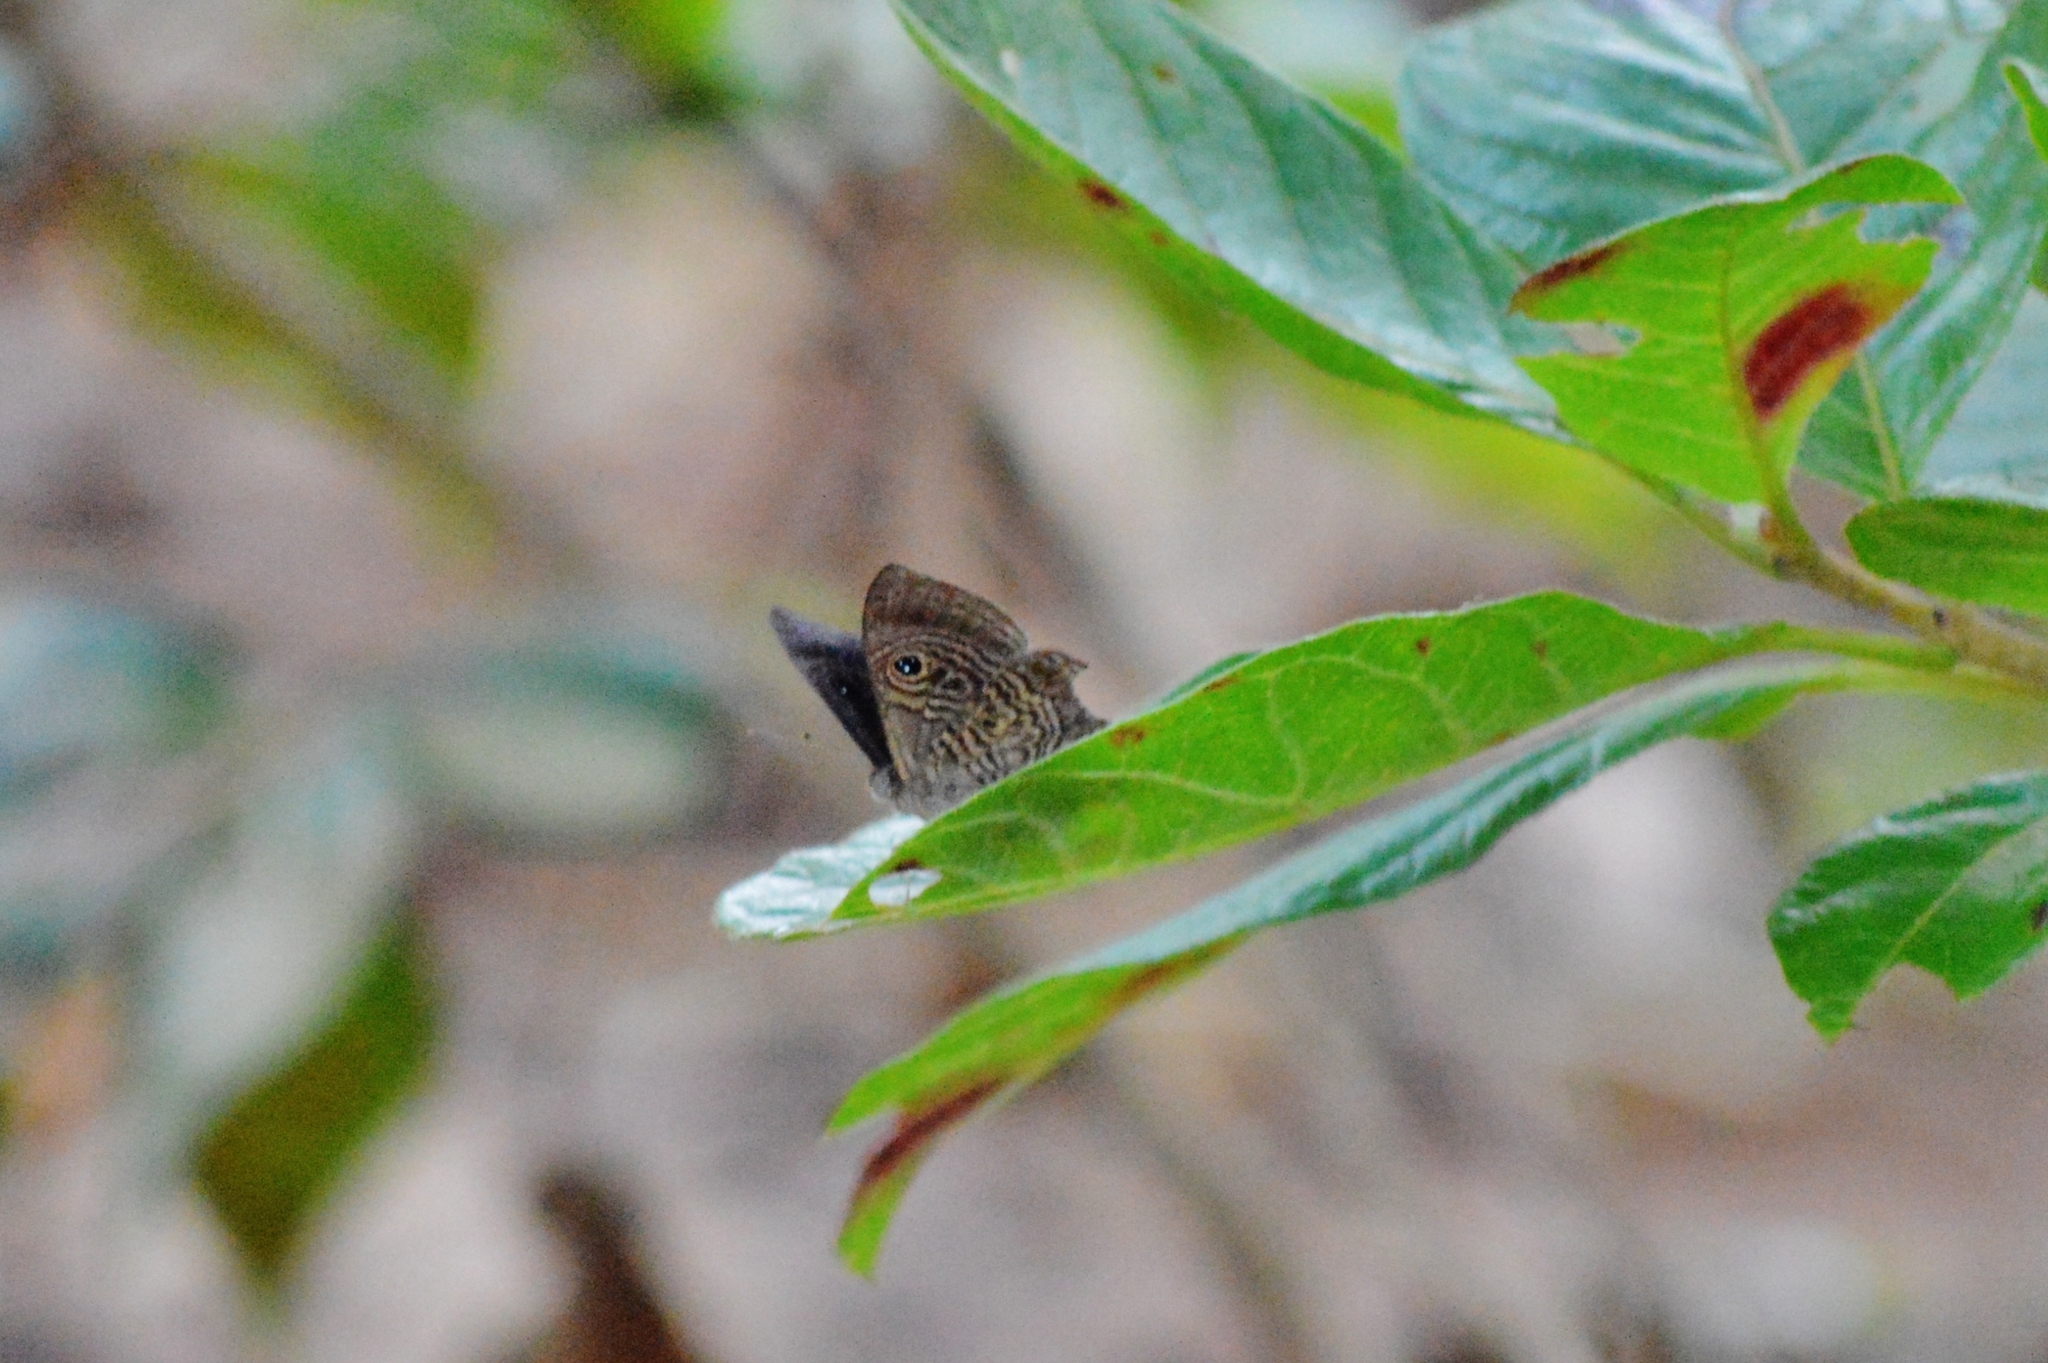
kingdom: Animalia
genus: Mesosemia
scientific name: Mesosemia hesperina
